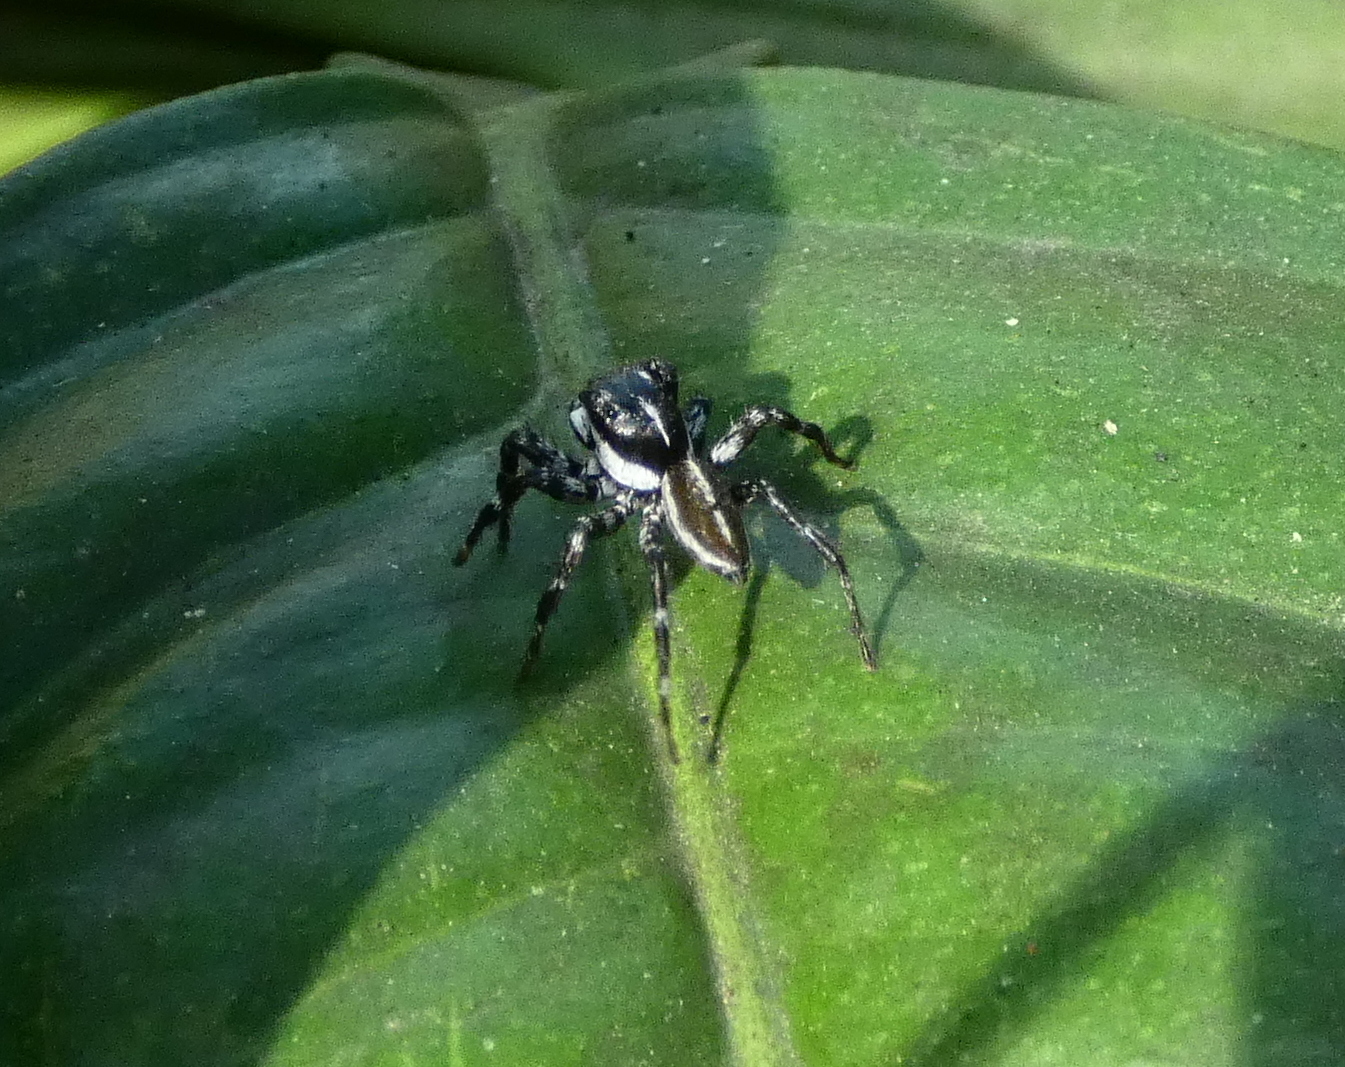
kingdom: Animalia
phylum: Arthropoda
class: Arachnida
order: Araneae
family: Salticidae
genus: Phiale
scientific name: Phiale tristis
